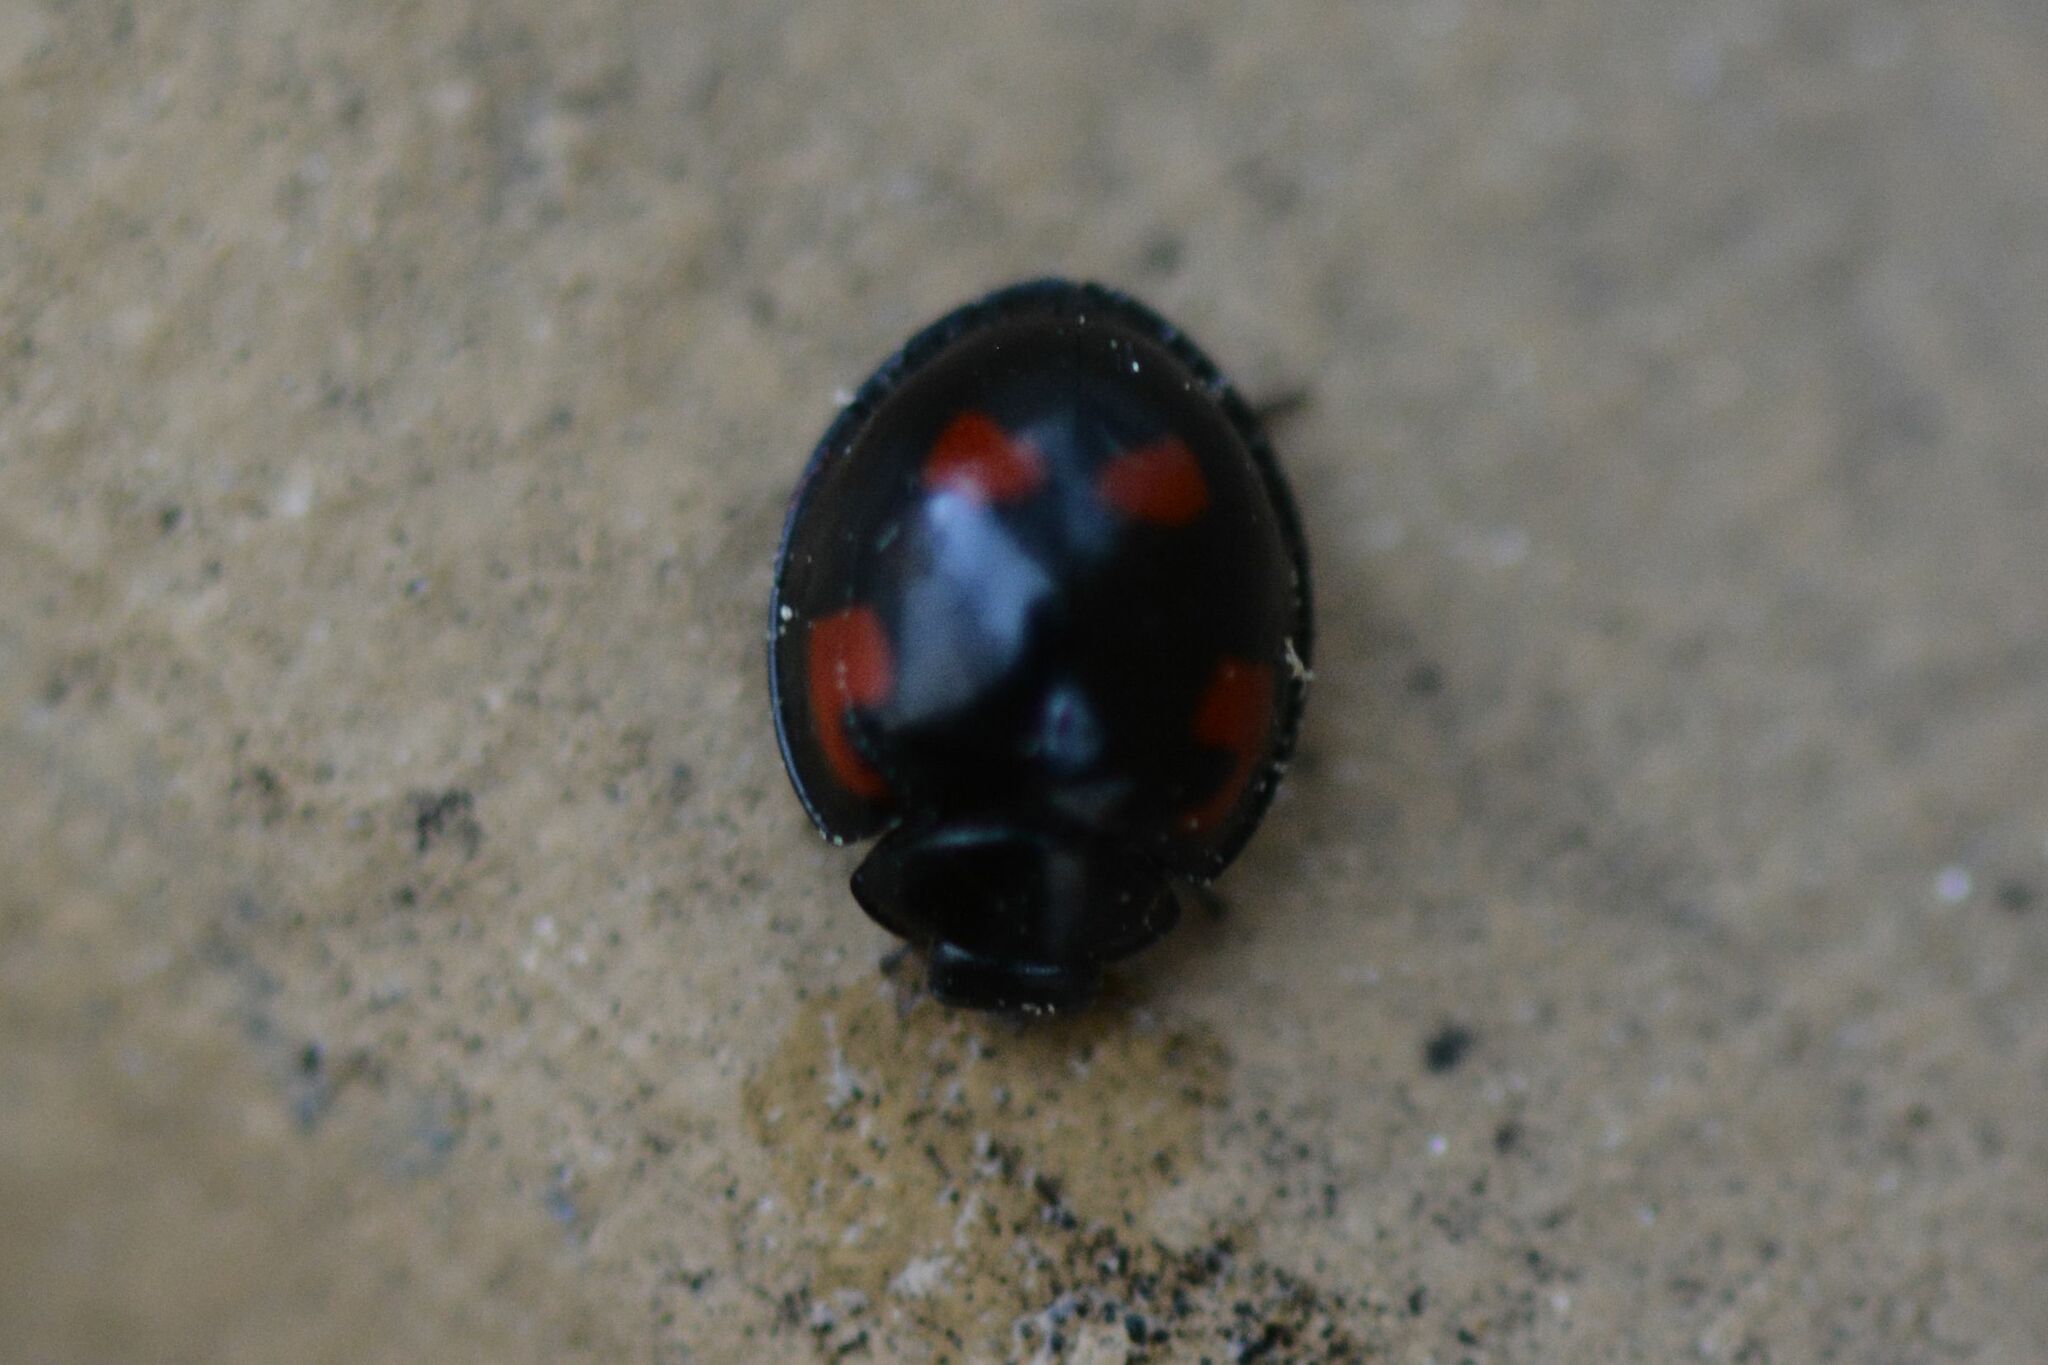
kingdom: Animalia
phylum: Arthropoda
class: Insecta
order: Coleoptera
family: Coccinellidae
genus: Brumus
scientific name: Brumus quadripustulatus
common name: Ladybird beetle
